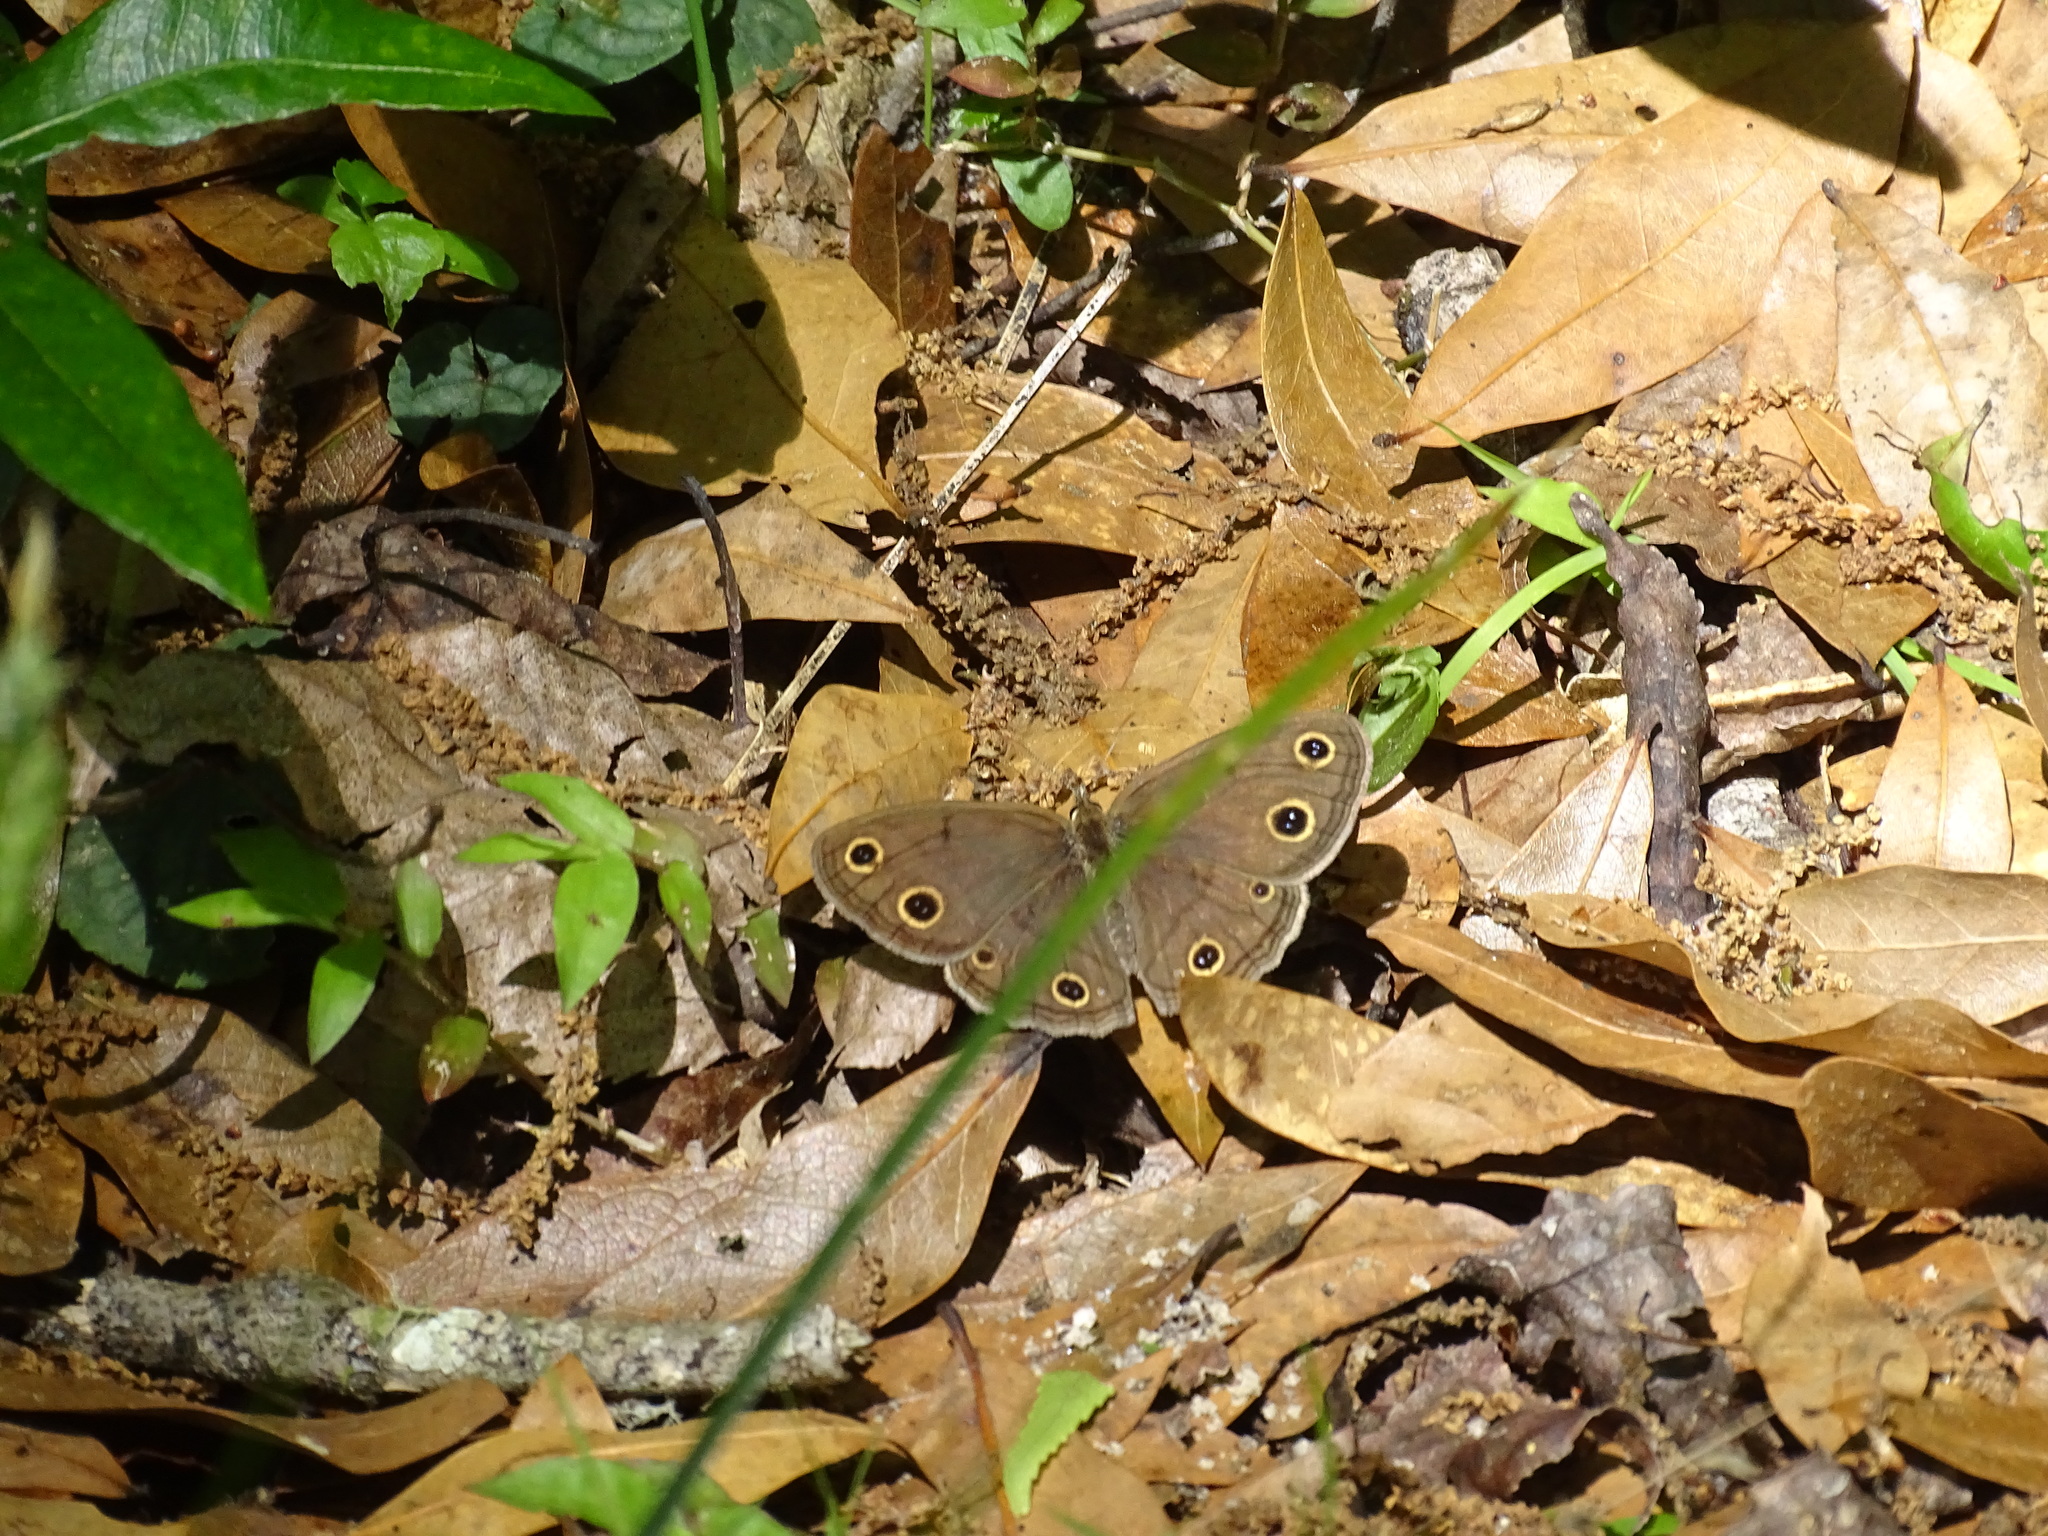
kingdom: Animalia
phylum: Arthropoda
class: Insecta
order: Lepidoptera
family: Nymphalidae
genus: Euptychia
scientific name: Euptychia cymela
